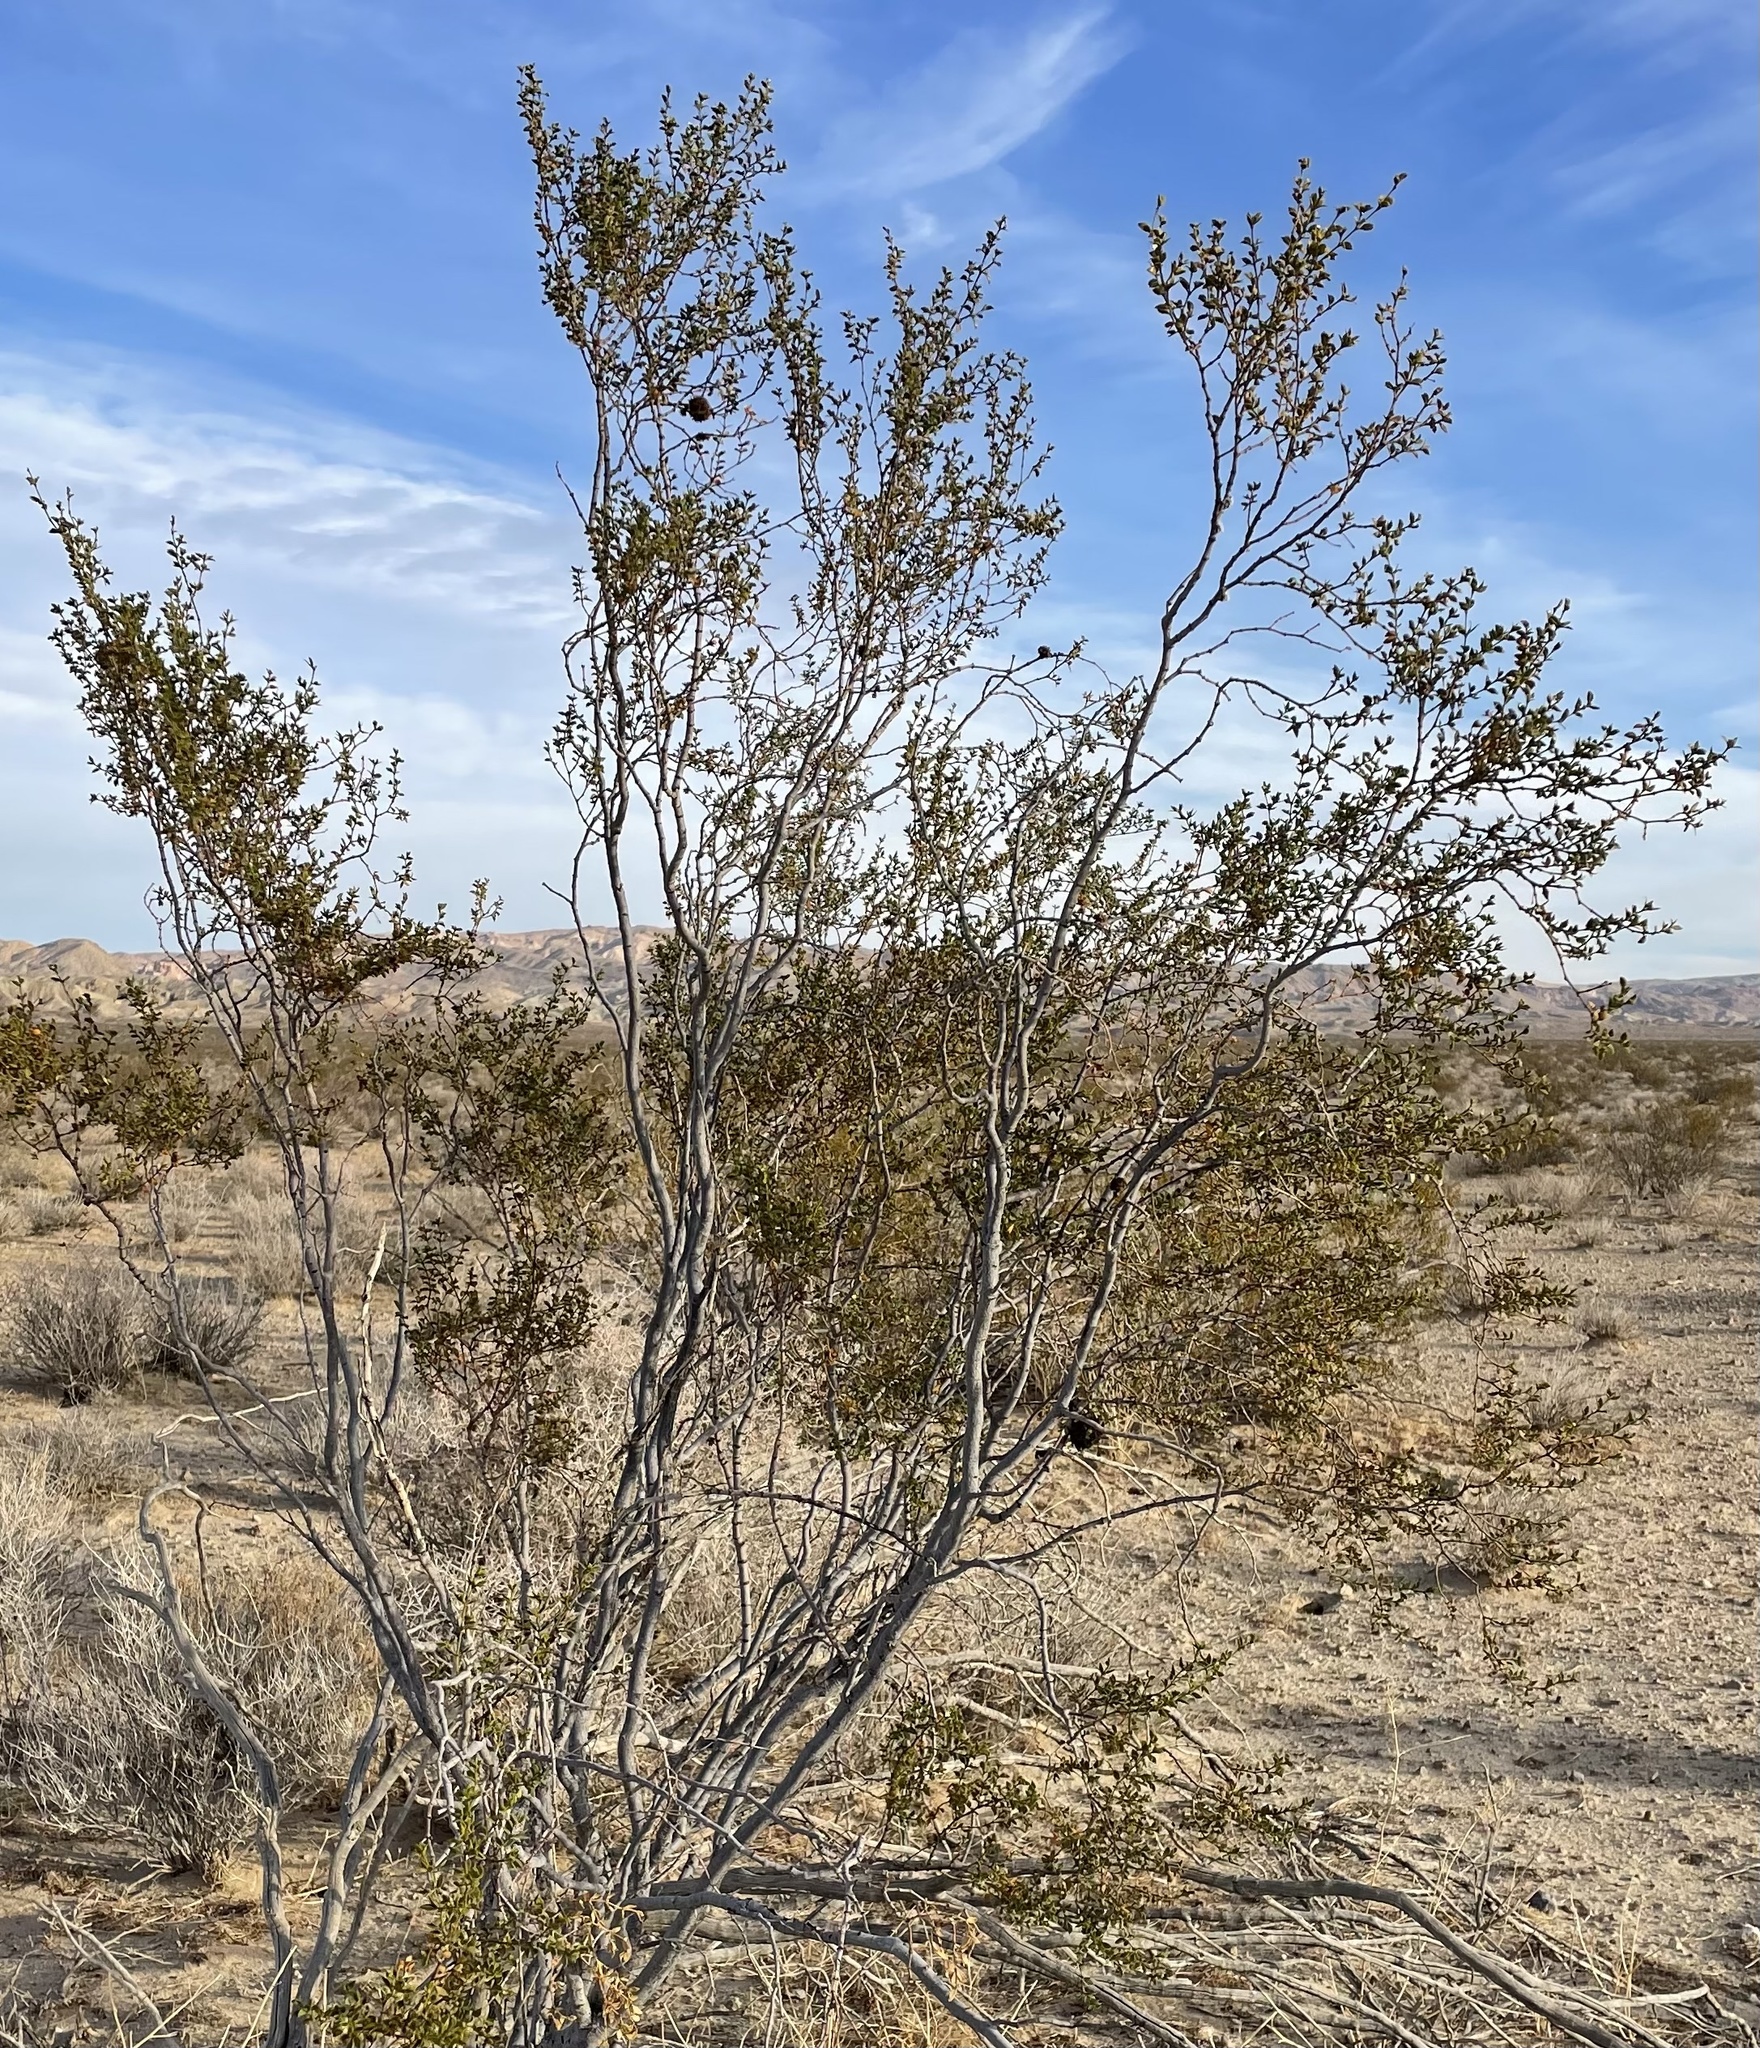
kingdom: Plantae
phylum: Tracheophyta
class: Magnoliopsida
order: Zygophyllales
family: Zygophyllaceae
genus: Larrea
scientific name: Larrea tridentata
